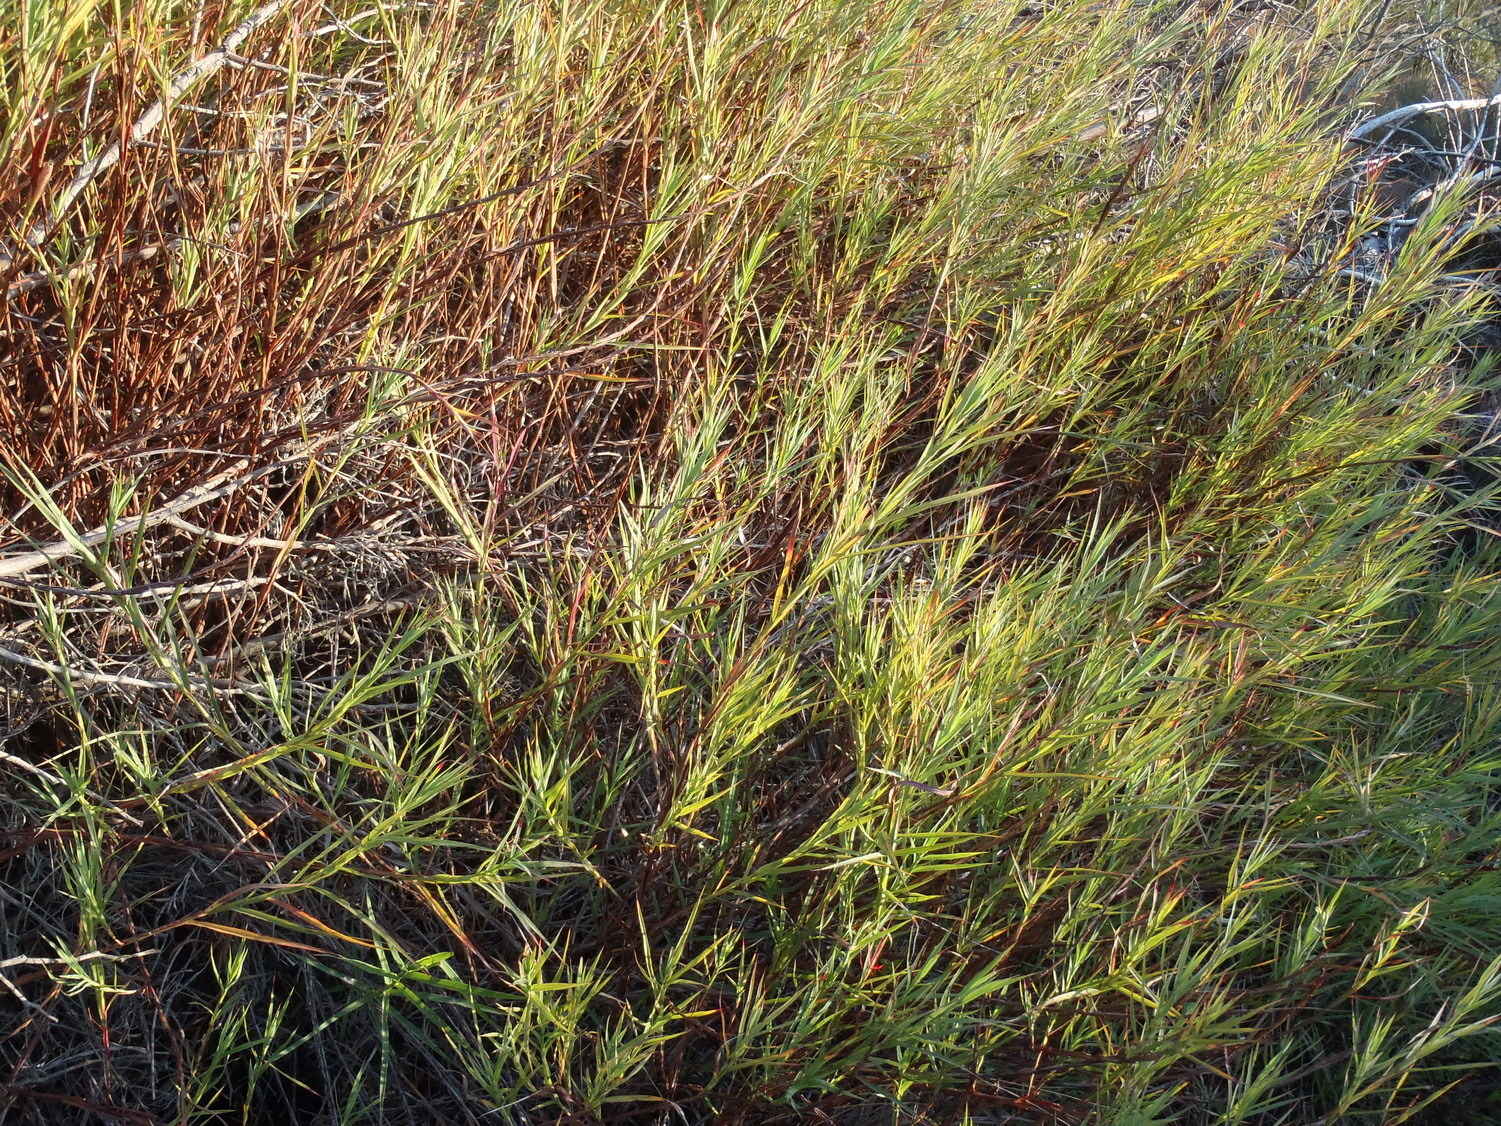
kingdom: Plantae
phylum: Tracheophyta
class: Magnoliopsida
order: Rosales
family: Rosaceae
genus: Cliffortia
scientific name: Cliffortia graminea
